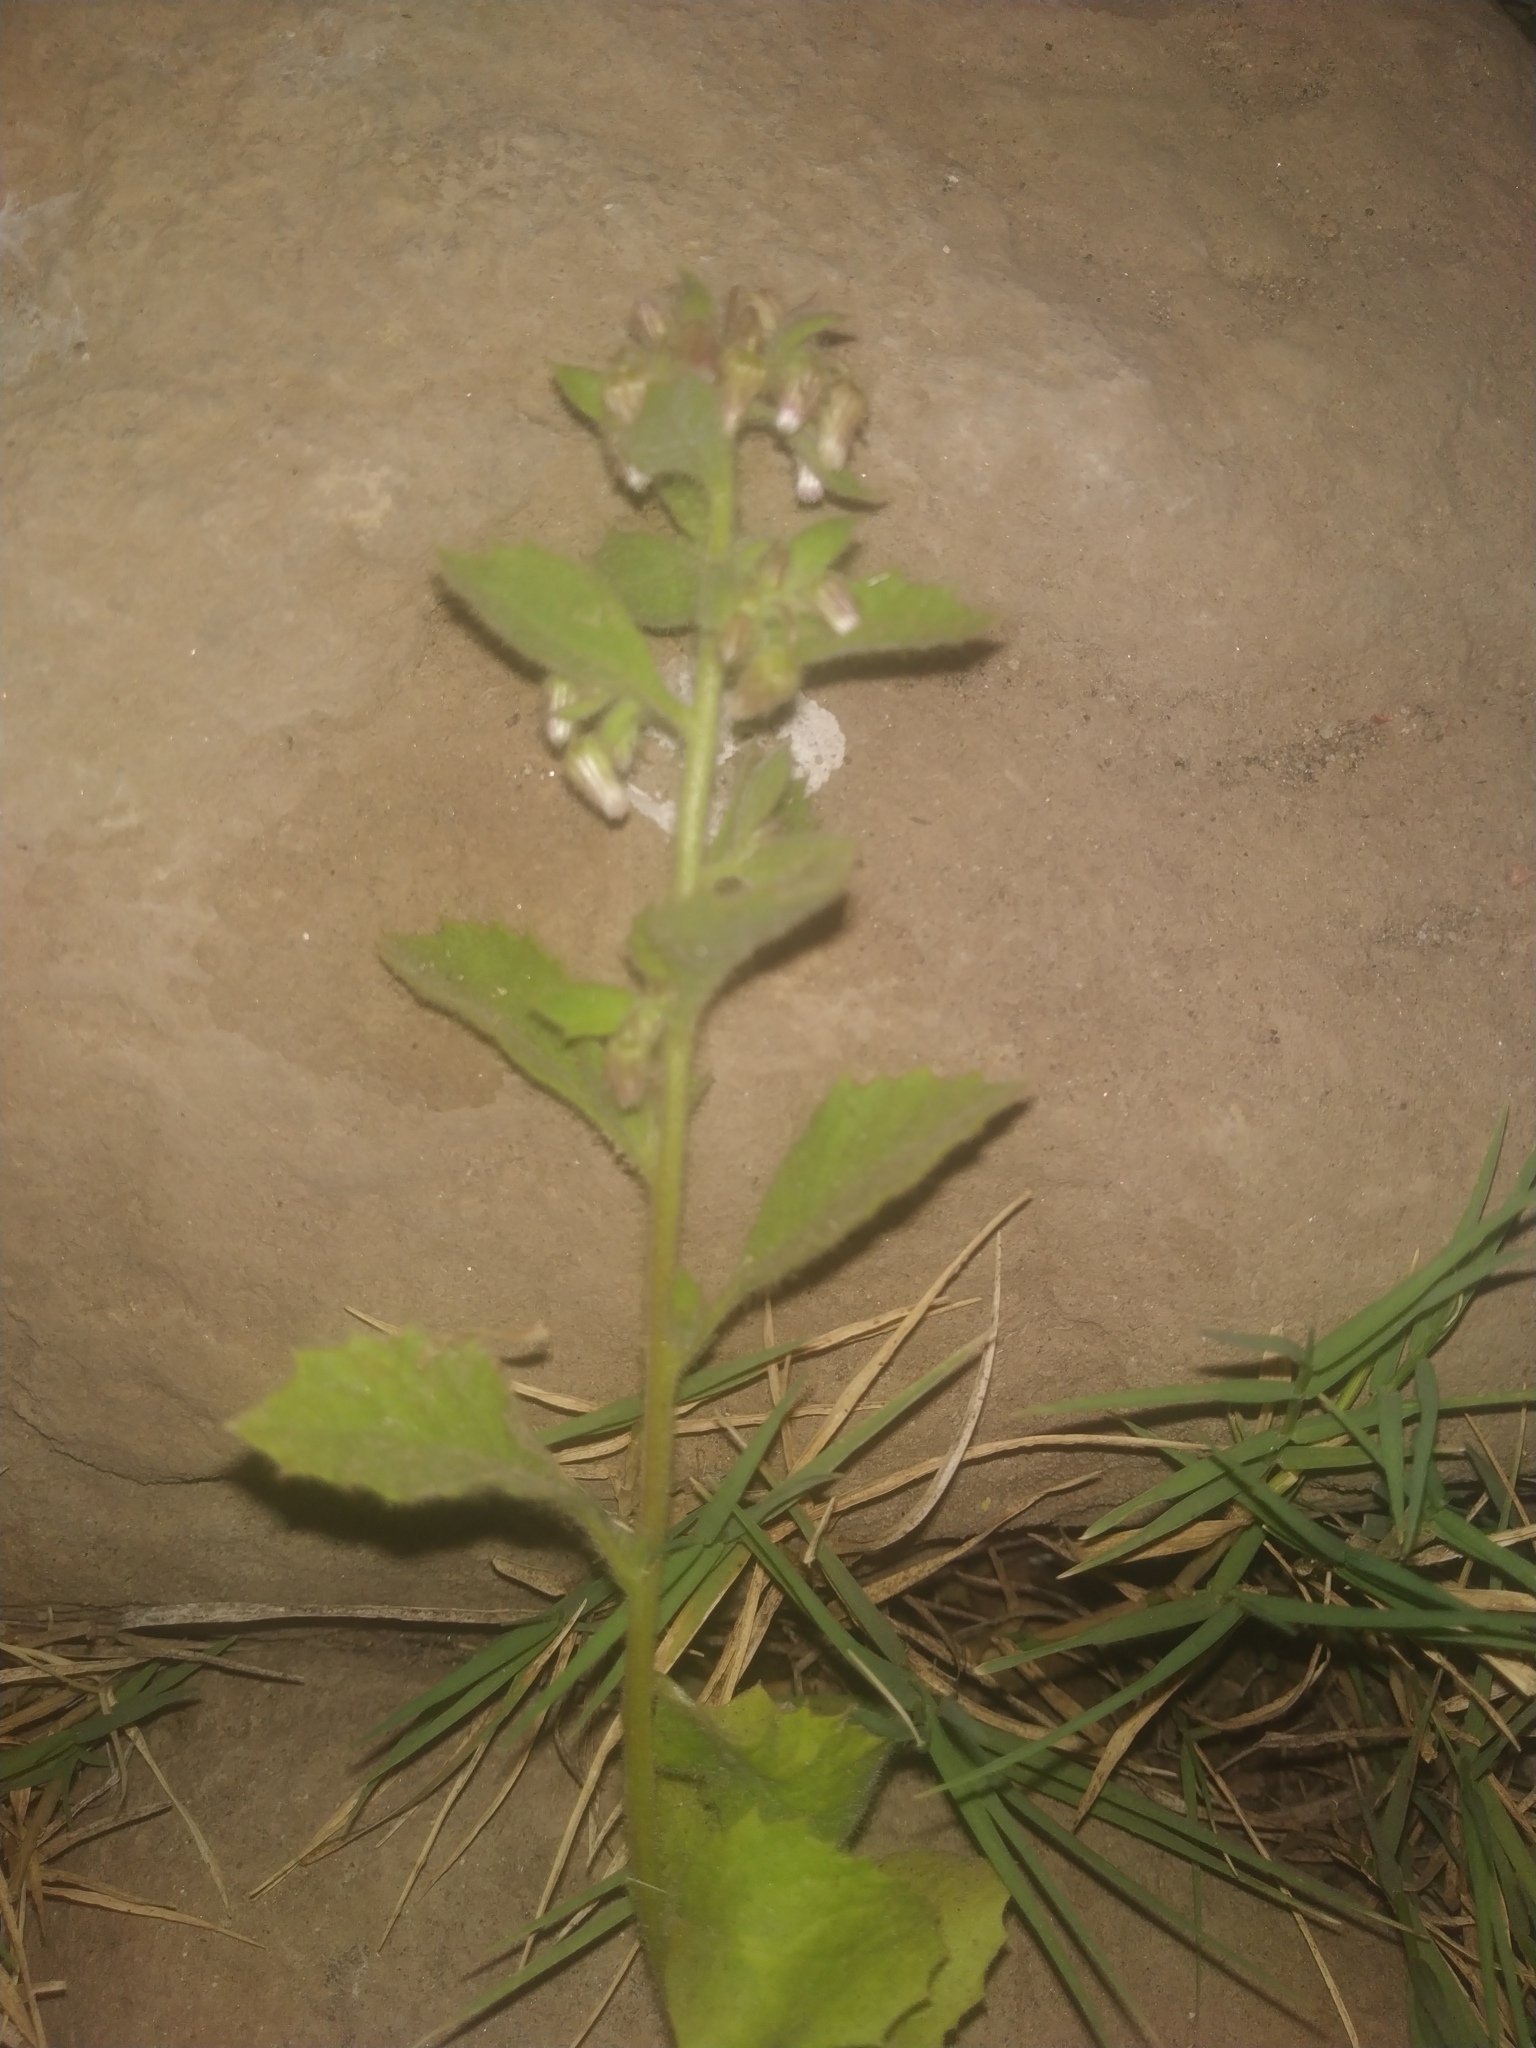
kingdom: Plantae
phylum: Tracheophyta
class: Magnoliopsida
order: Asterales
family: Asteraceae
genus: Blumea
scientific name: Blumea axillaris
